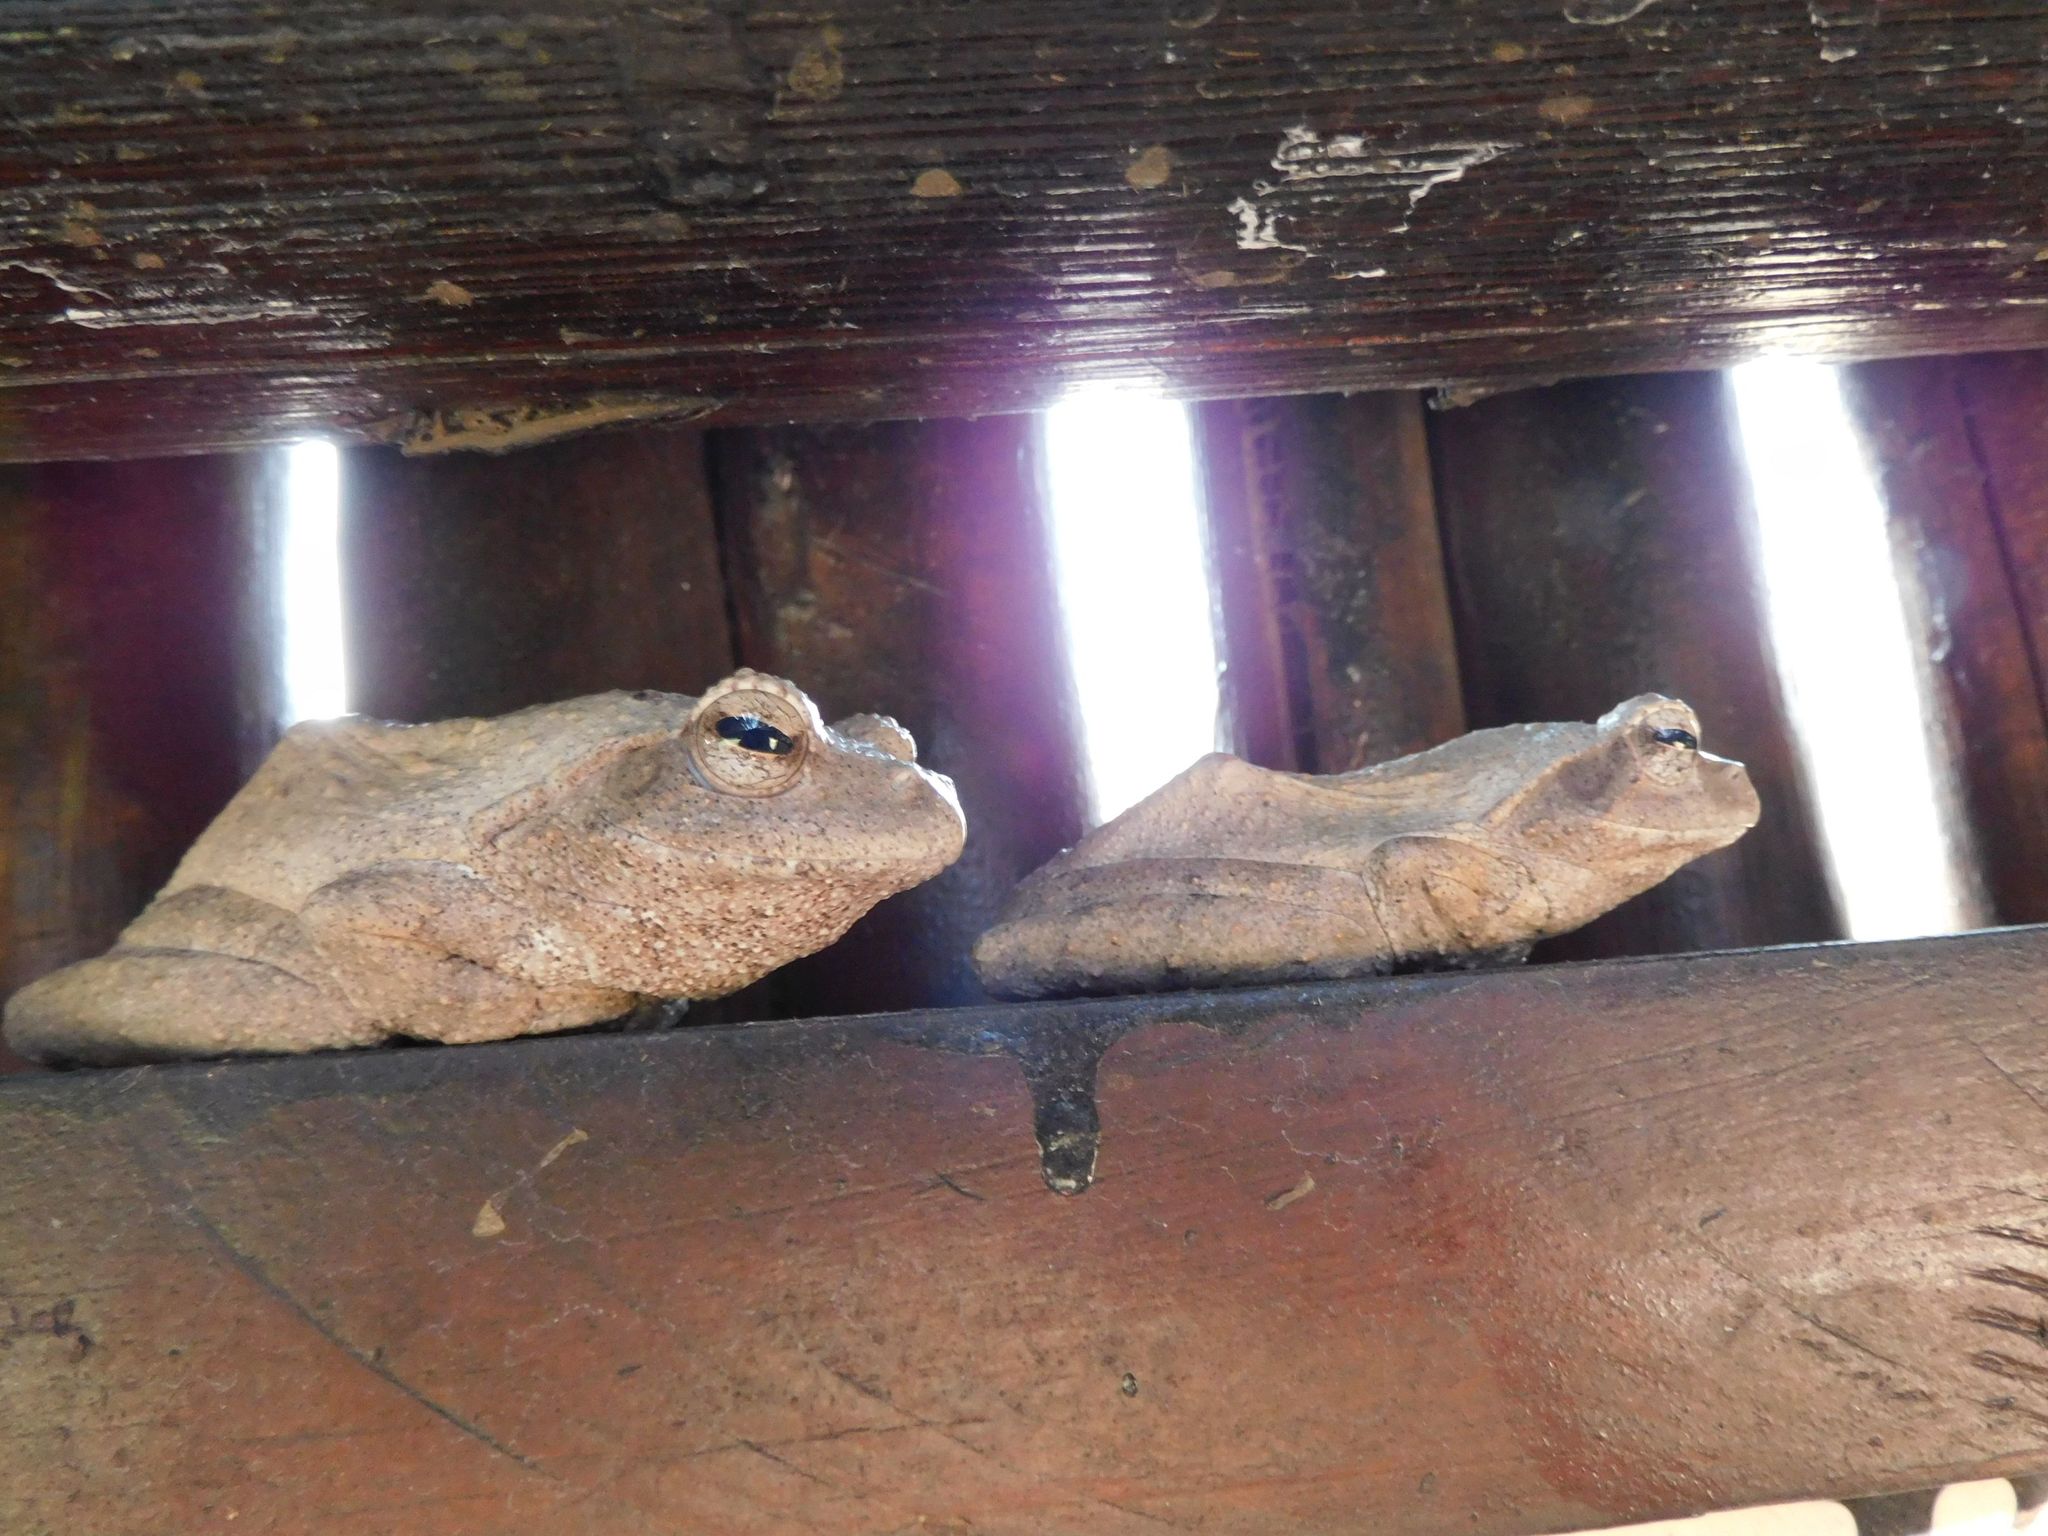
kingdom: Animalia
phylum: Chordata
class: Amphibia
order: Anura
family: Rhacophoridae
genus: Chiromantis
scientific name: Chiromantis xerampelina
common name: African gray treefrog
